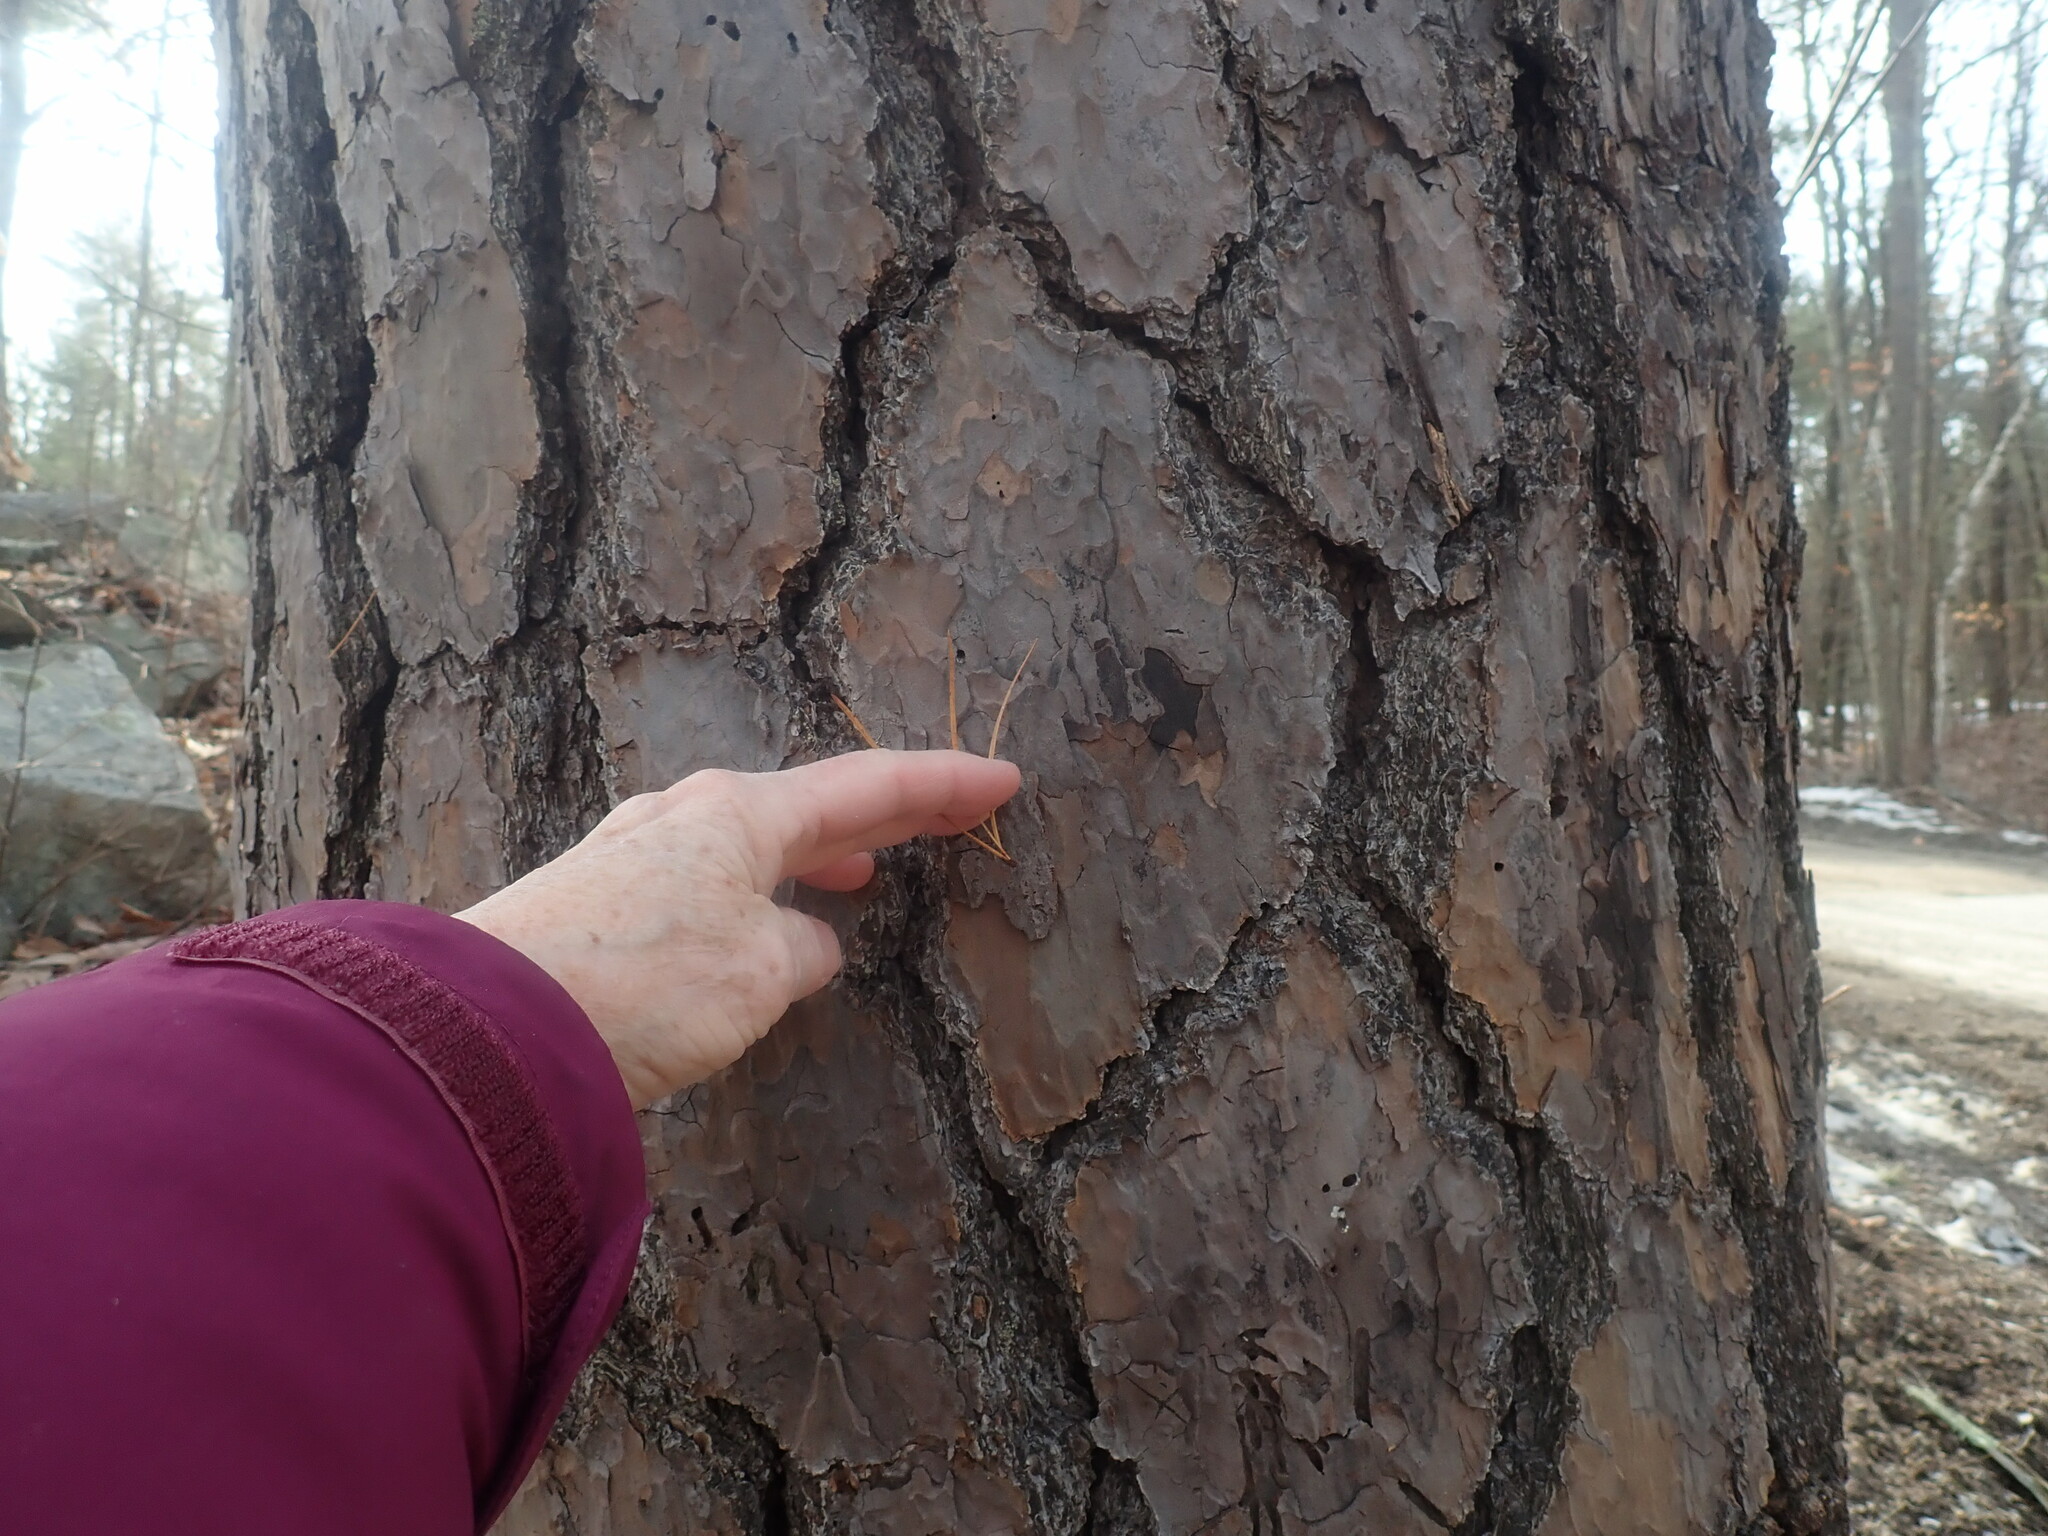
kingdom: Plantae
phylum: Tracheophyta
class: Pinopsida
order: Pinales
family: Pinaceae
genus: Pinus
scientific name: Pinus rigida
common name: Pitch pine
